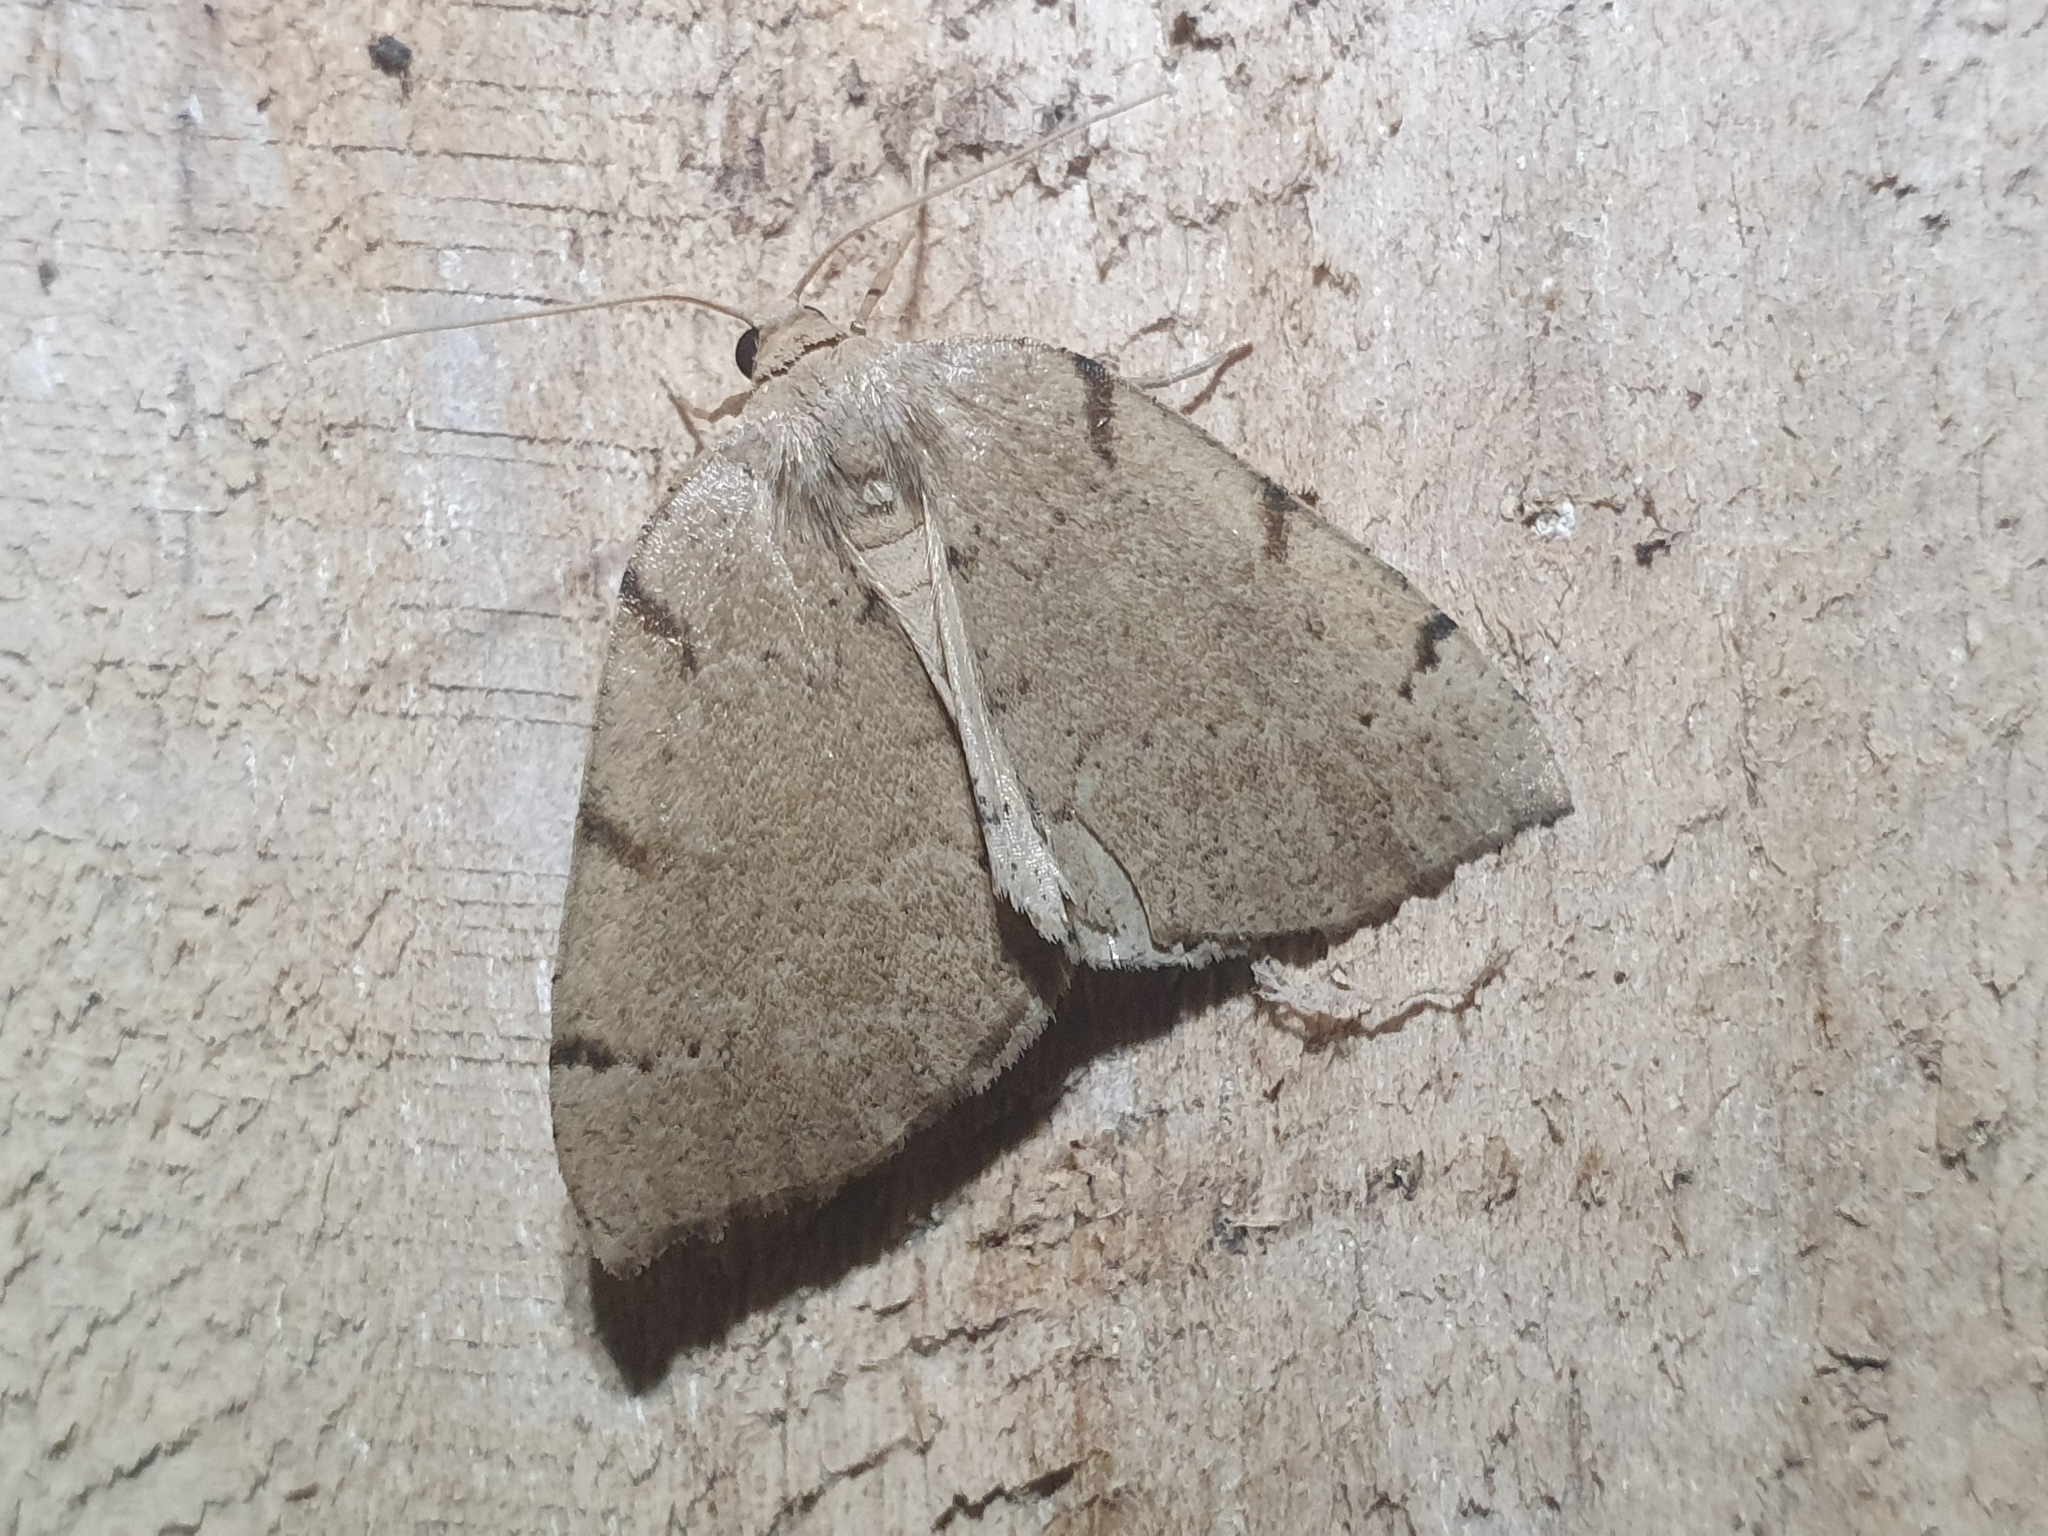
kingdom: Animalia
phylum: Arthropoda
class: Insecta
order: Lepidoptera
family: Geometridae
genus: Sestra
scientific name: Sestra humeraria
